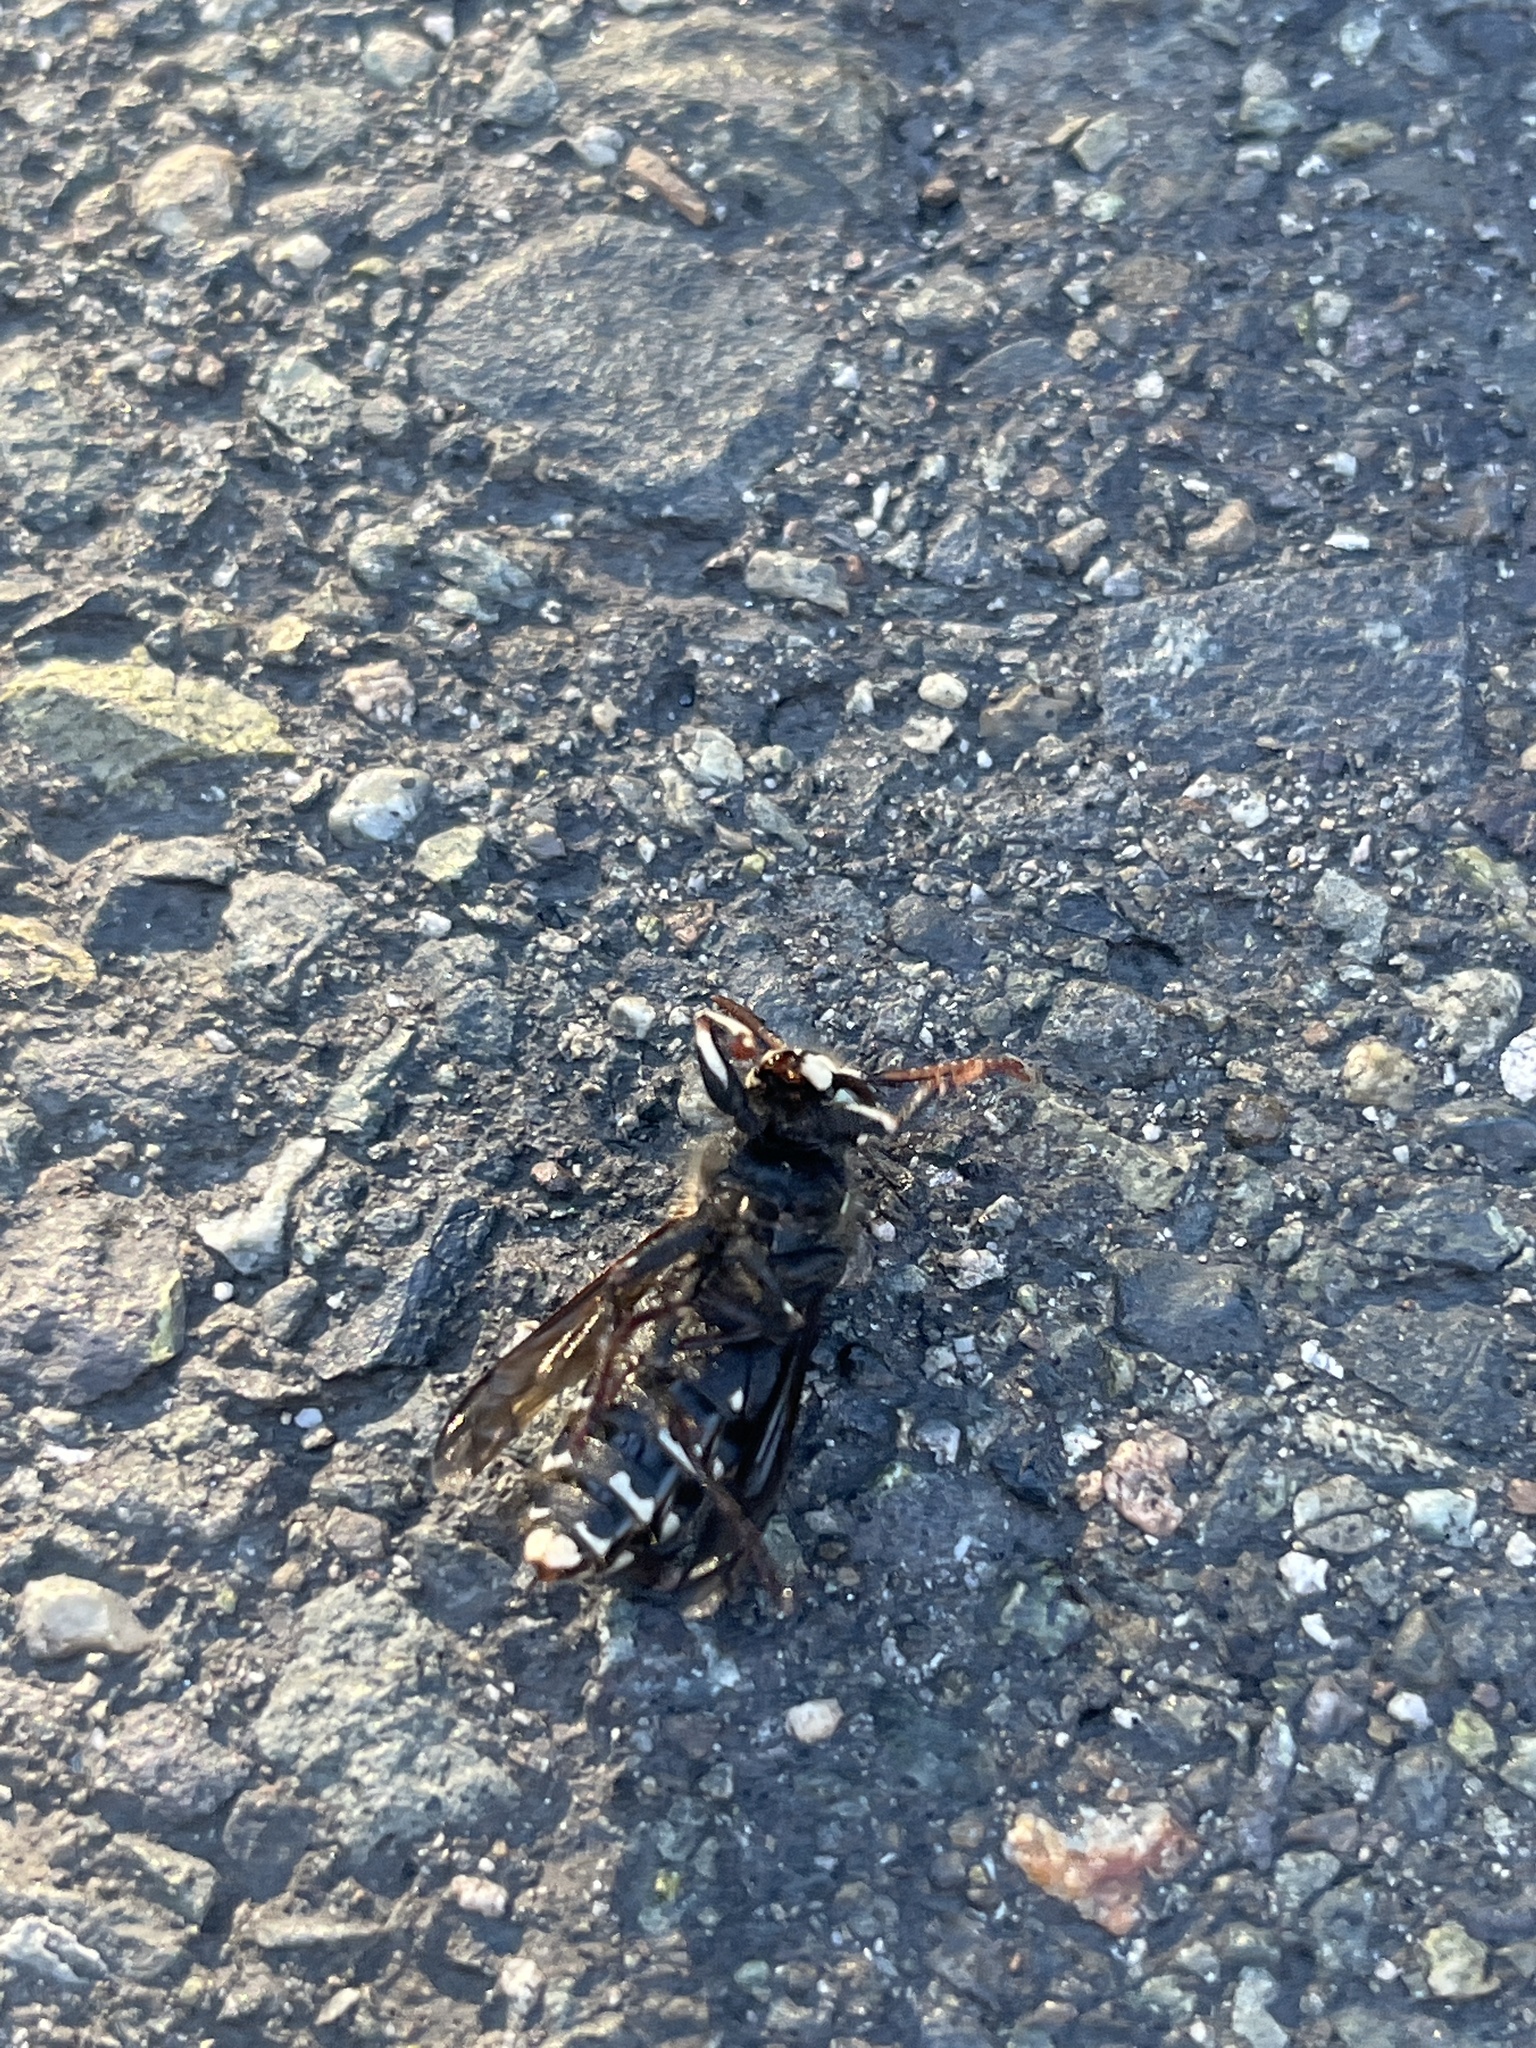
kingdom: Animalia
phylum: Arthropoda
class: Insecta
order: Hymenoptera
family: Vespidae
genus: Dolichovespula
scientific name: Dolichovespula maculata
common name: Bald-faced hornet
